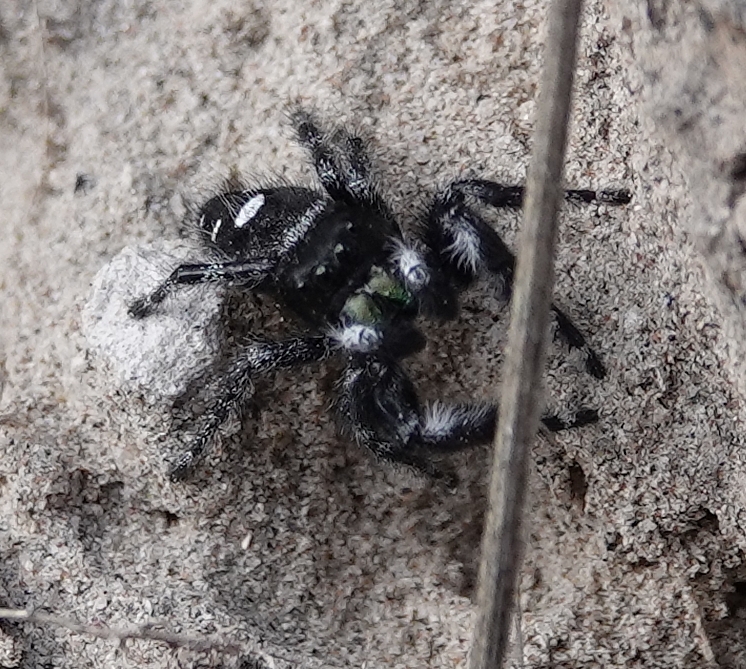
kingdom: Animalia
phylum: Arthropoda
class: Arachnida
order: Araneae
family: Salticidae
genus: Phidippus
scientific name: Phidippus audax
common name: Bold jumper
